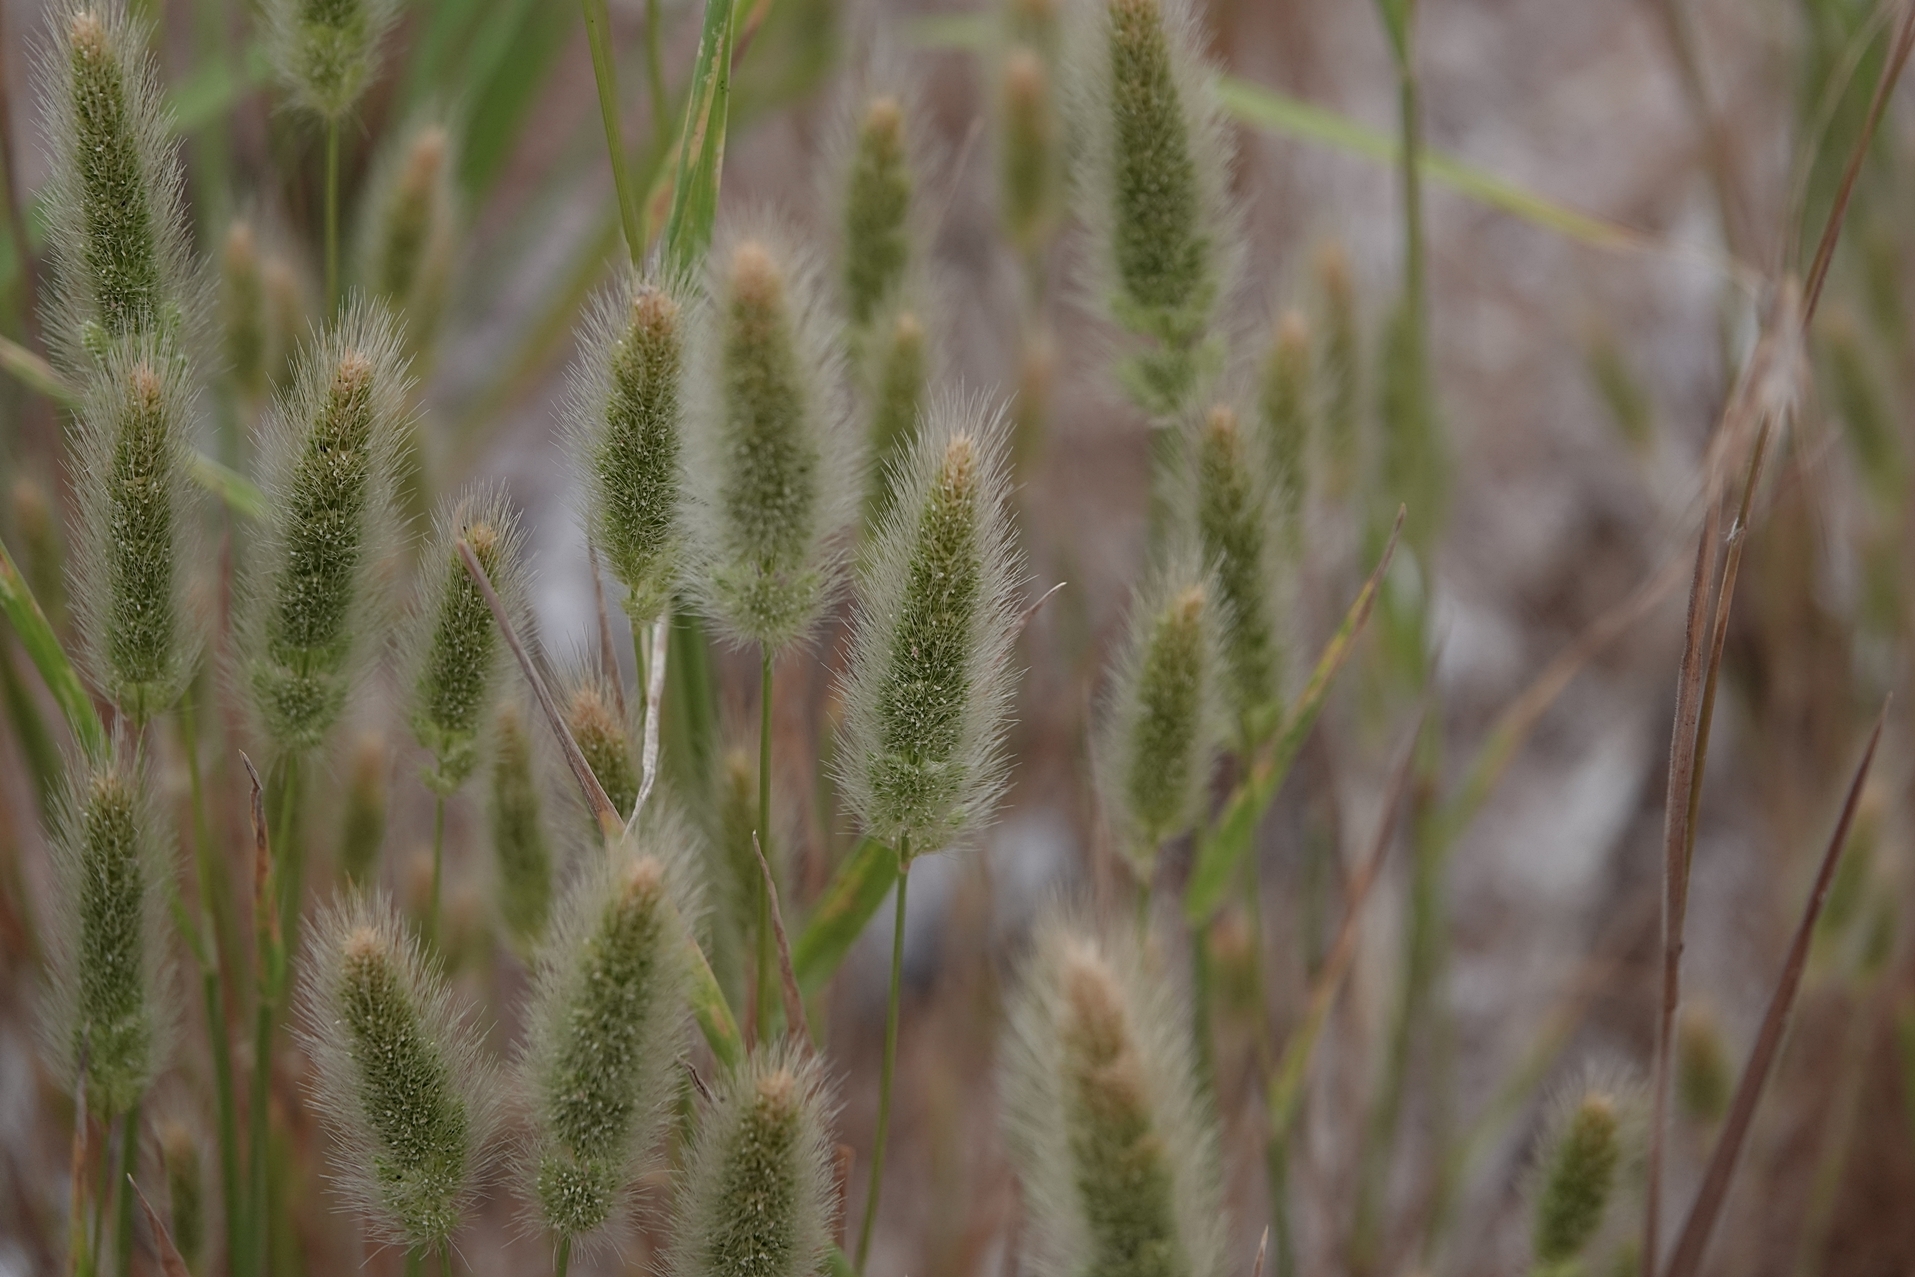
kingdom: Plantae
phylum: Tracheophyta
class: Liliopsida
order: Poales
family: Poaceae
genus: Polypogon
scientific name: Polypogon monspeliensis
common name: Annual rabbitsfoot grass
